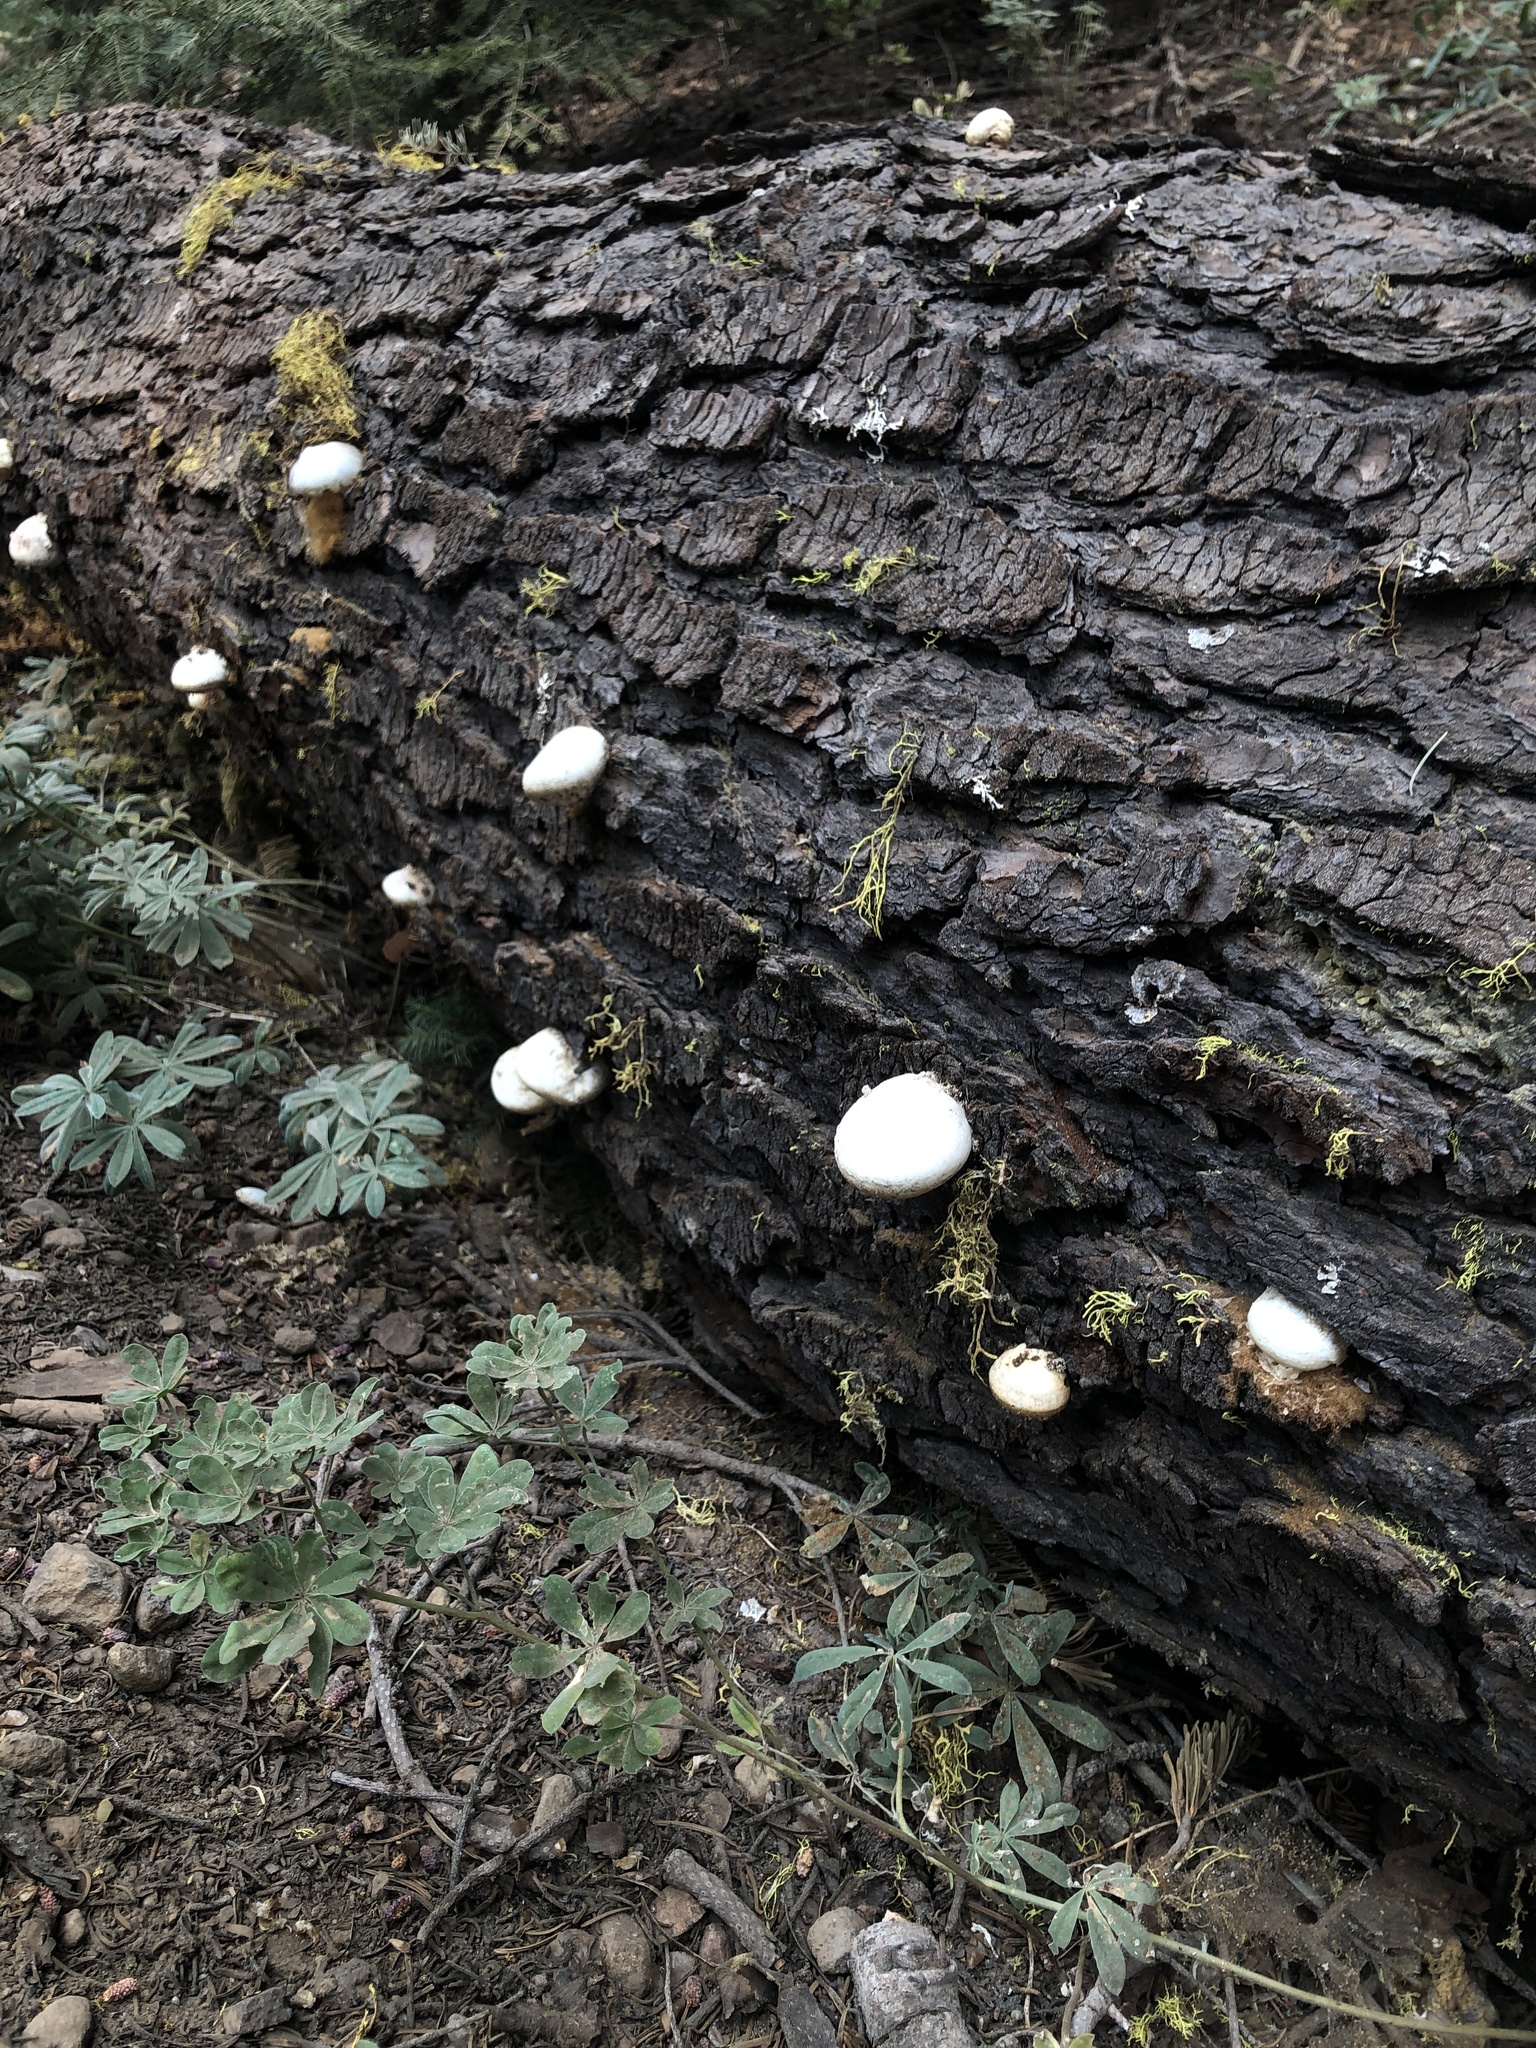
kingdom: Fungi
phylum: Basidiomycota
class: Agaricomycetes
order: Polyporales
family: Polyporaceae
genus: Cryptoporus
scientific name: Cryptoporus volvatus
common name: Veiled polypore
